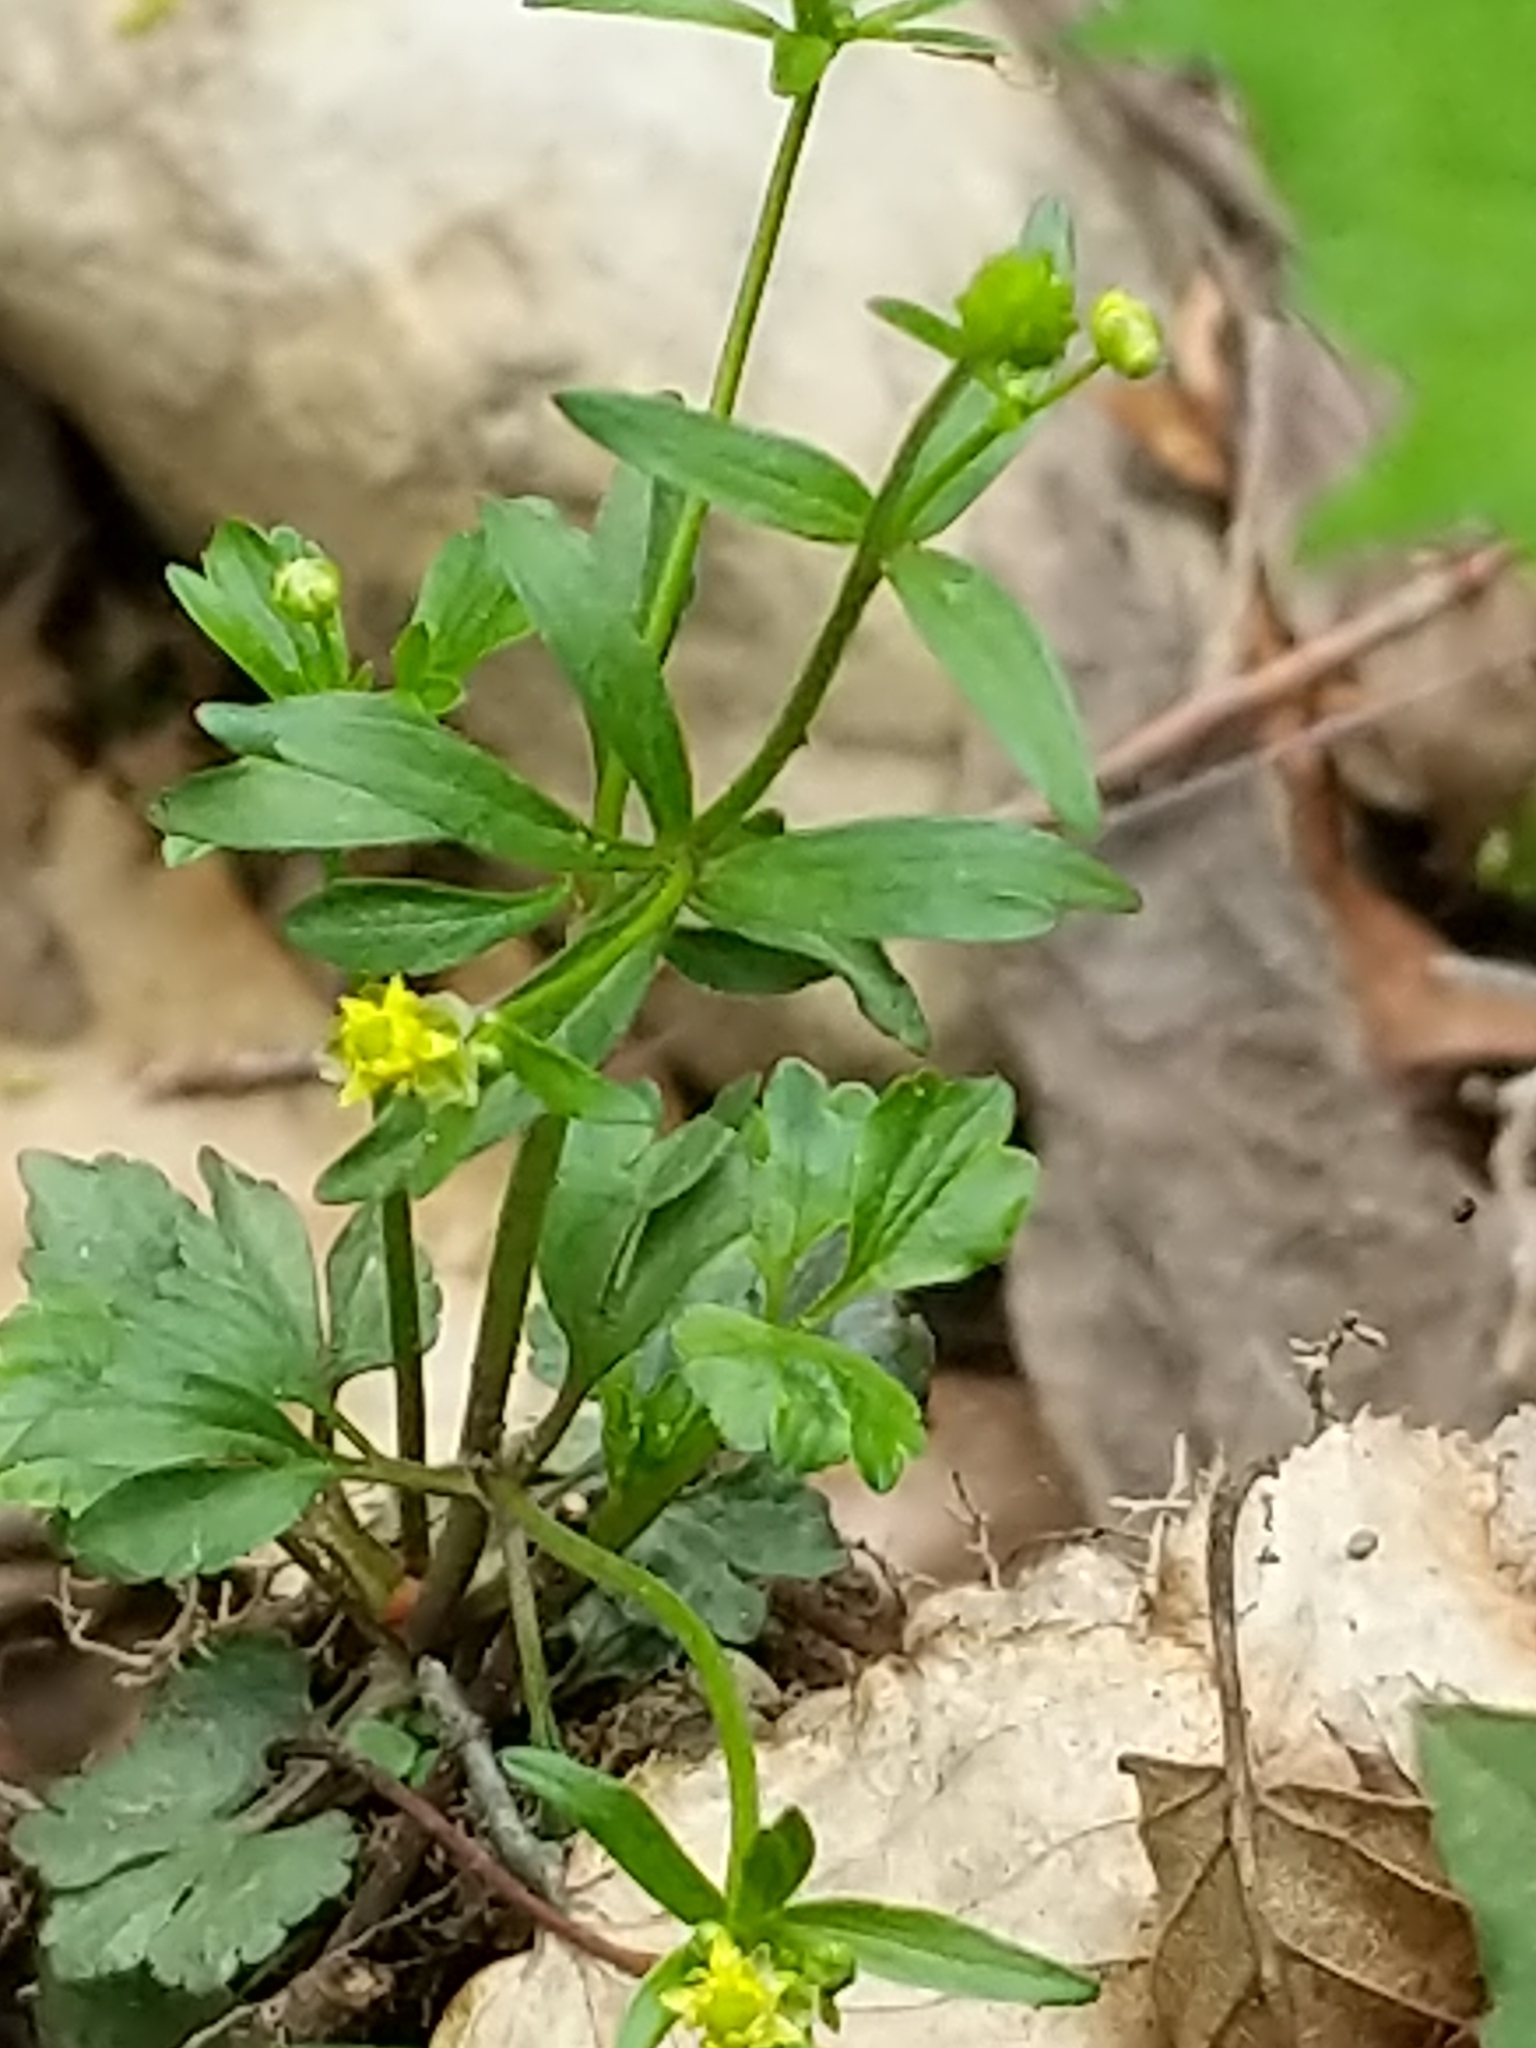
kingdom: Plantae
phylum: Tracheophyta
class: Magnoliopsida
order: Ranunculales
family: Ranunculaceae
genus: Ranunculus
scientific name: Ranunculus abortivus
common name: Early wood buttercup
